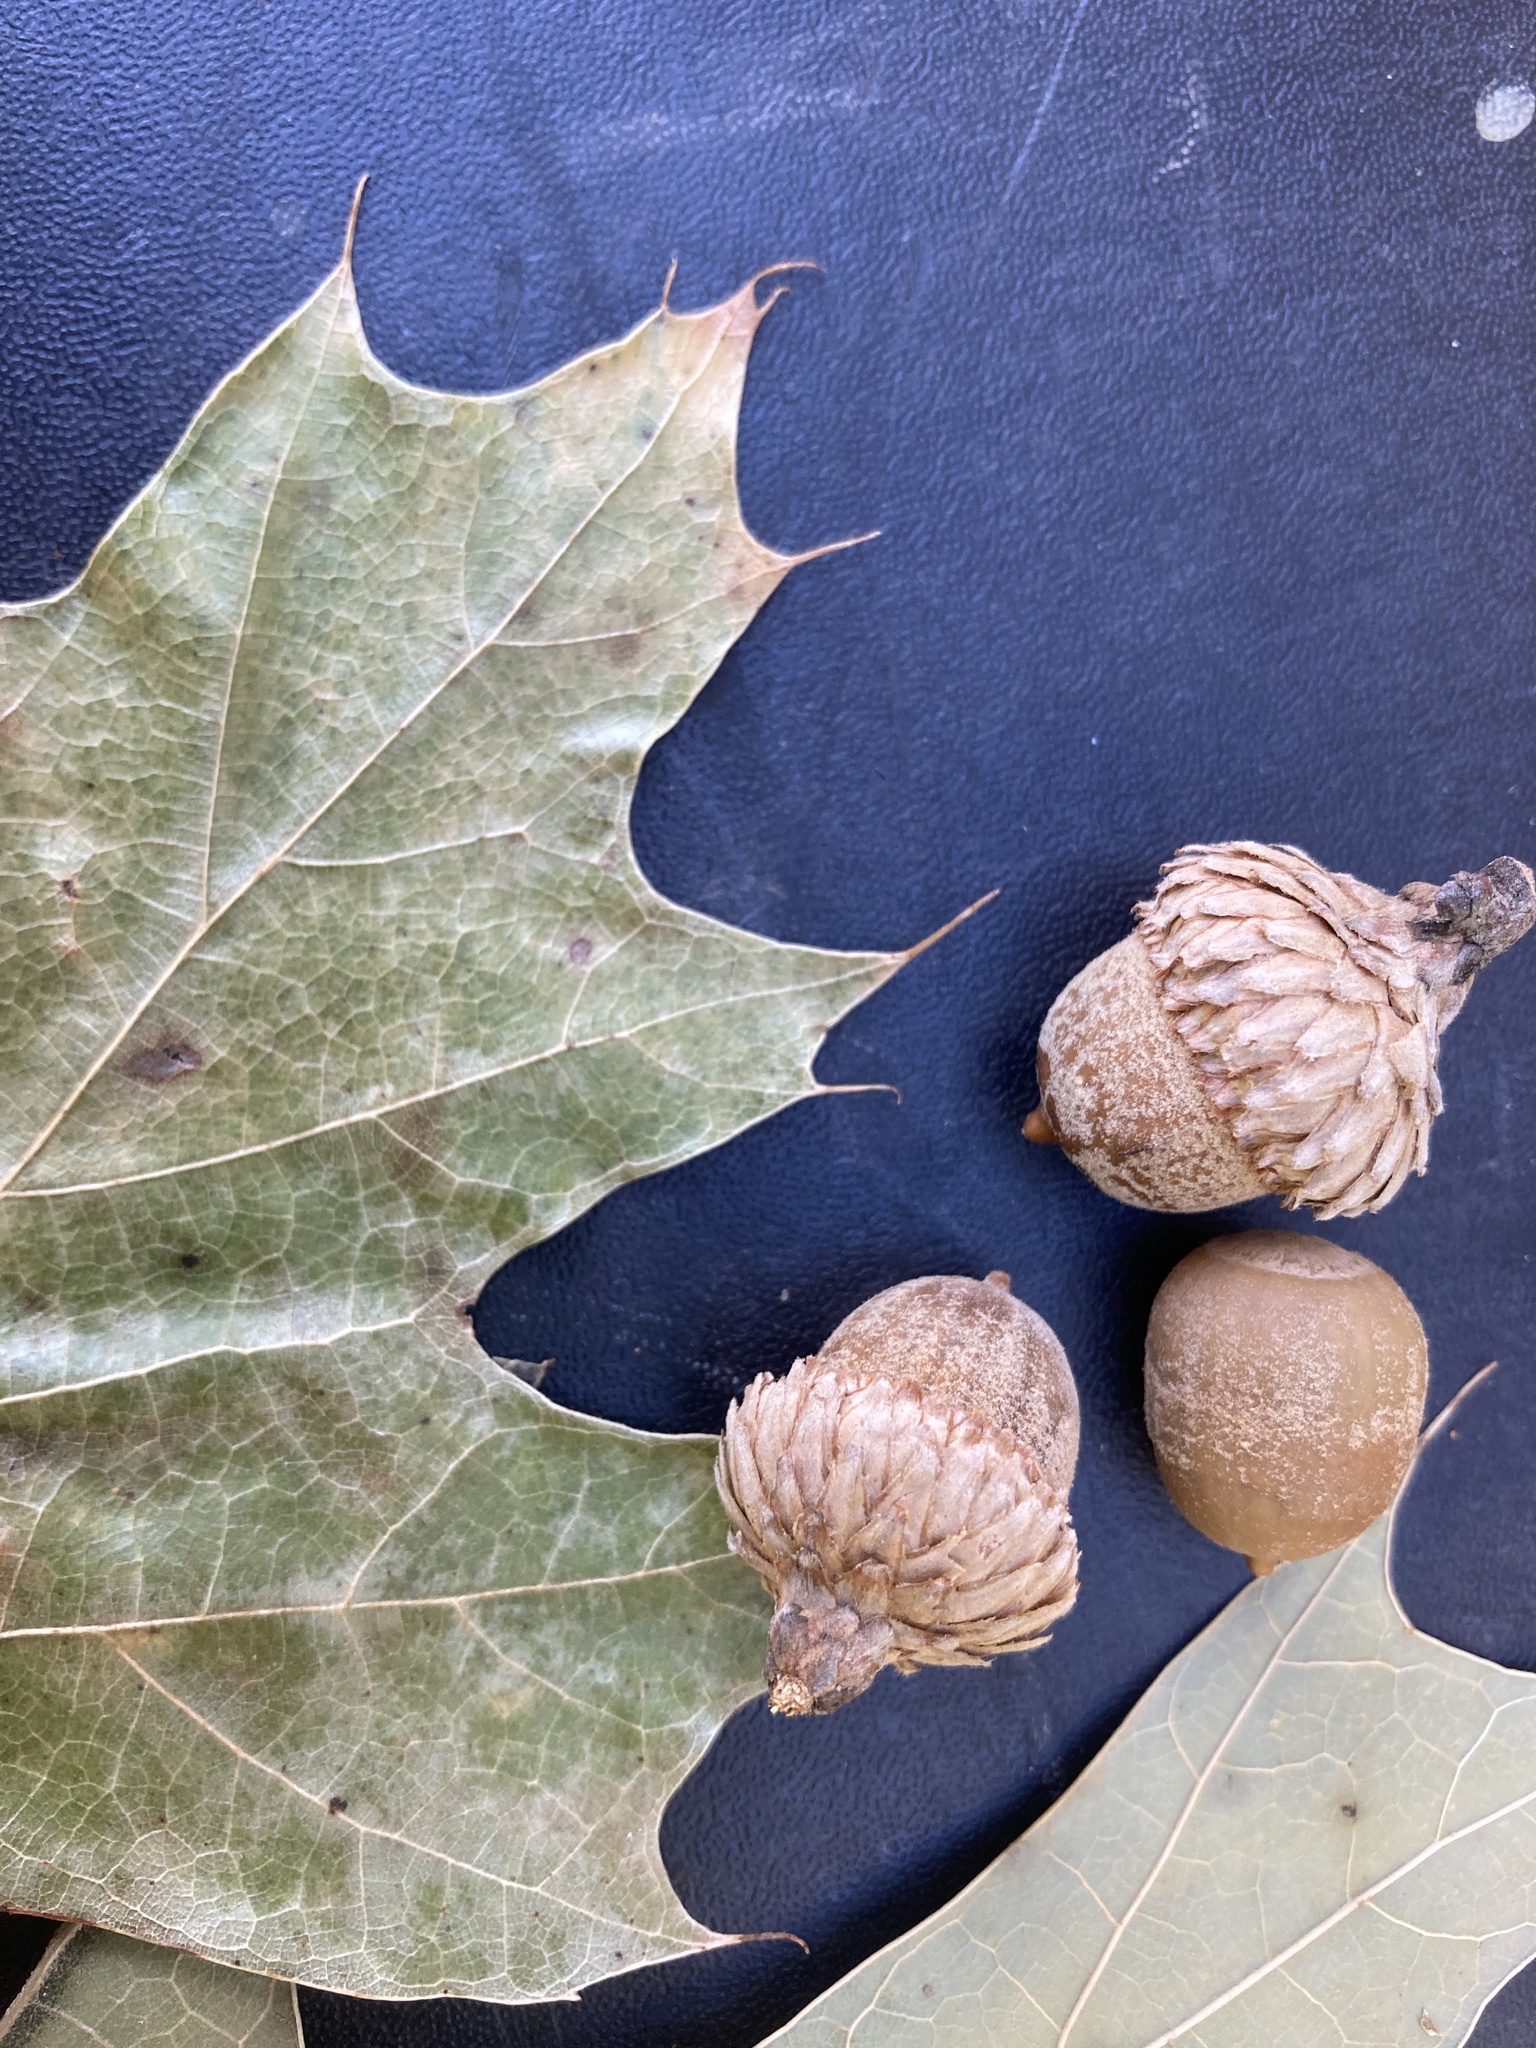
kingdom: Plantae
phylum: Tracheophyta
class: Magnoliopsida
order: Fagales
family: Fagaceae
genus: Quercus
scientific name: Quercus velutina
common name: Black oak
